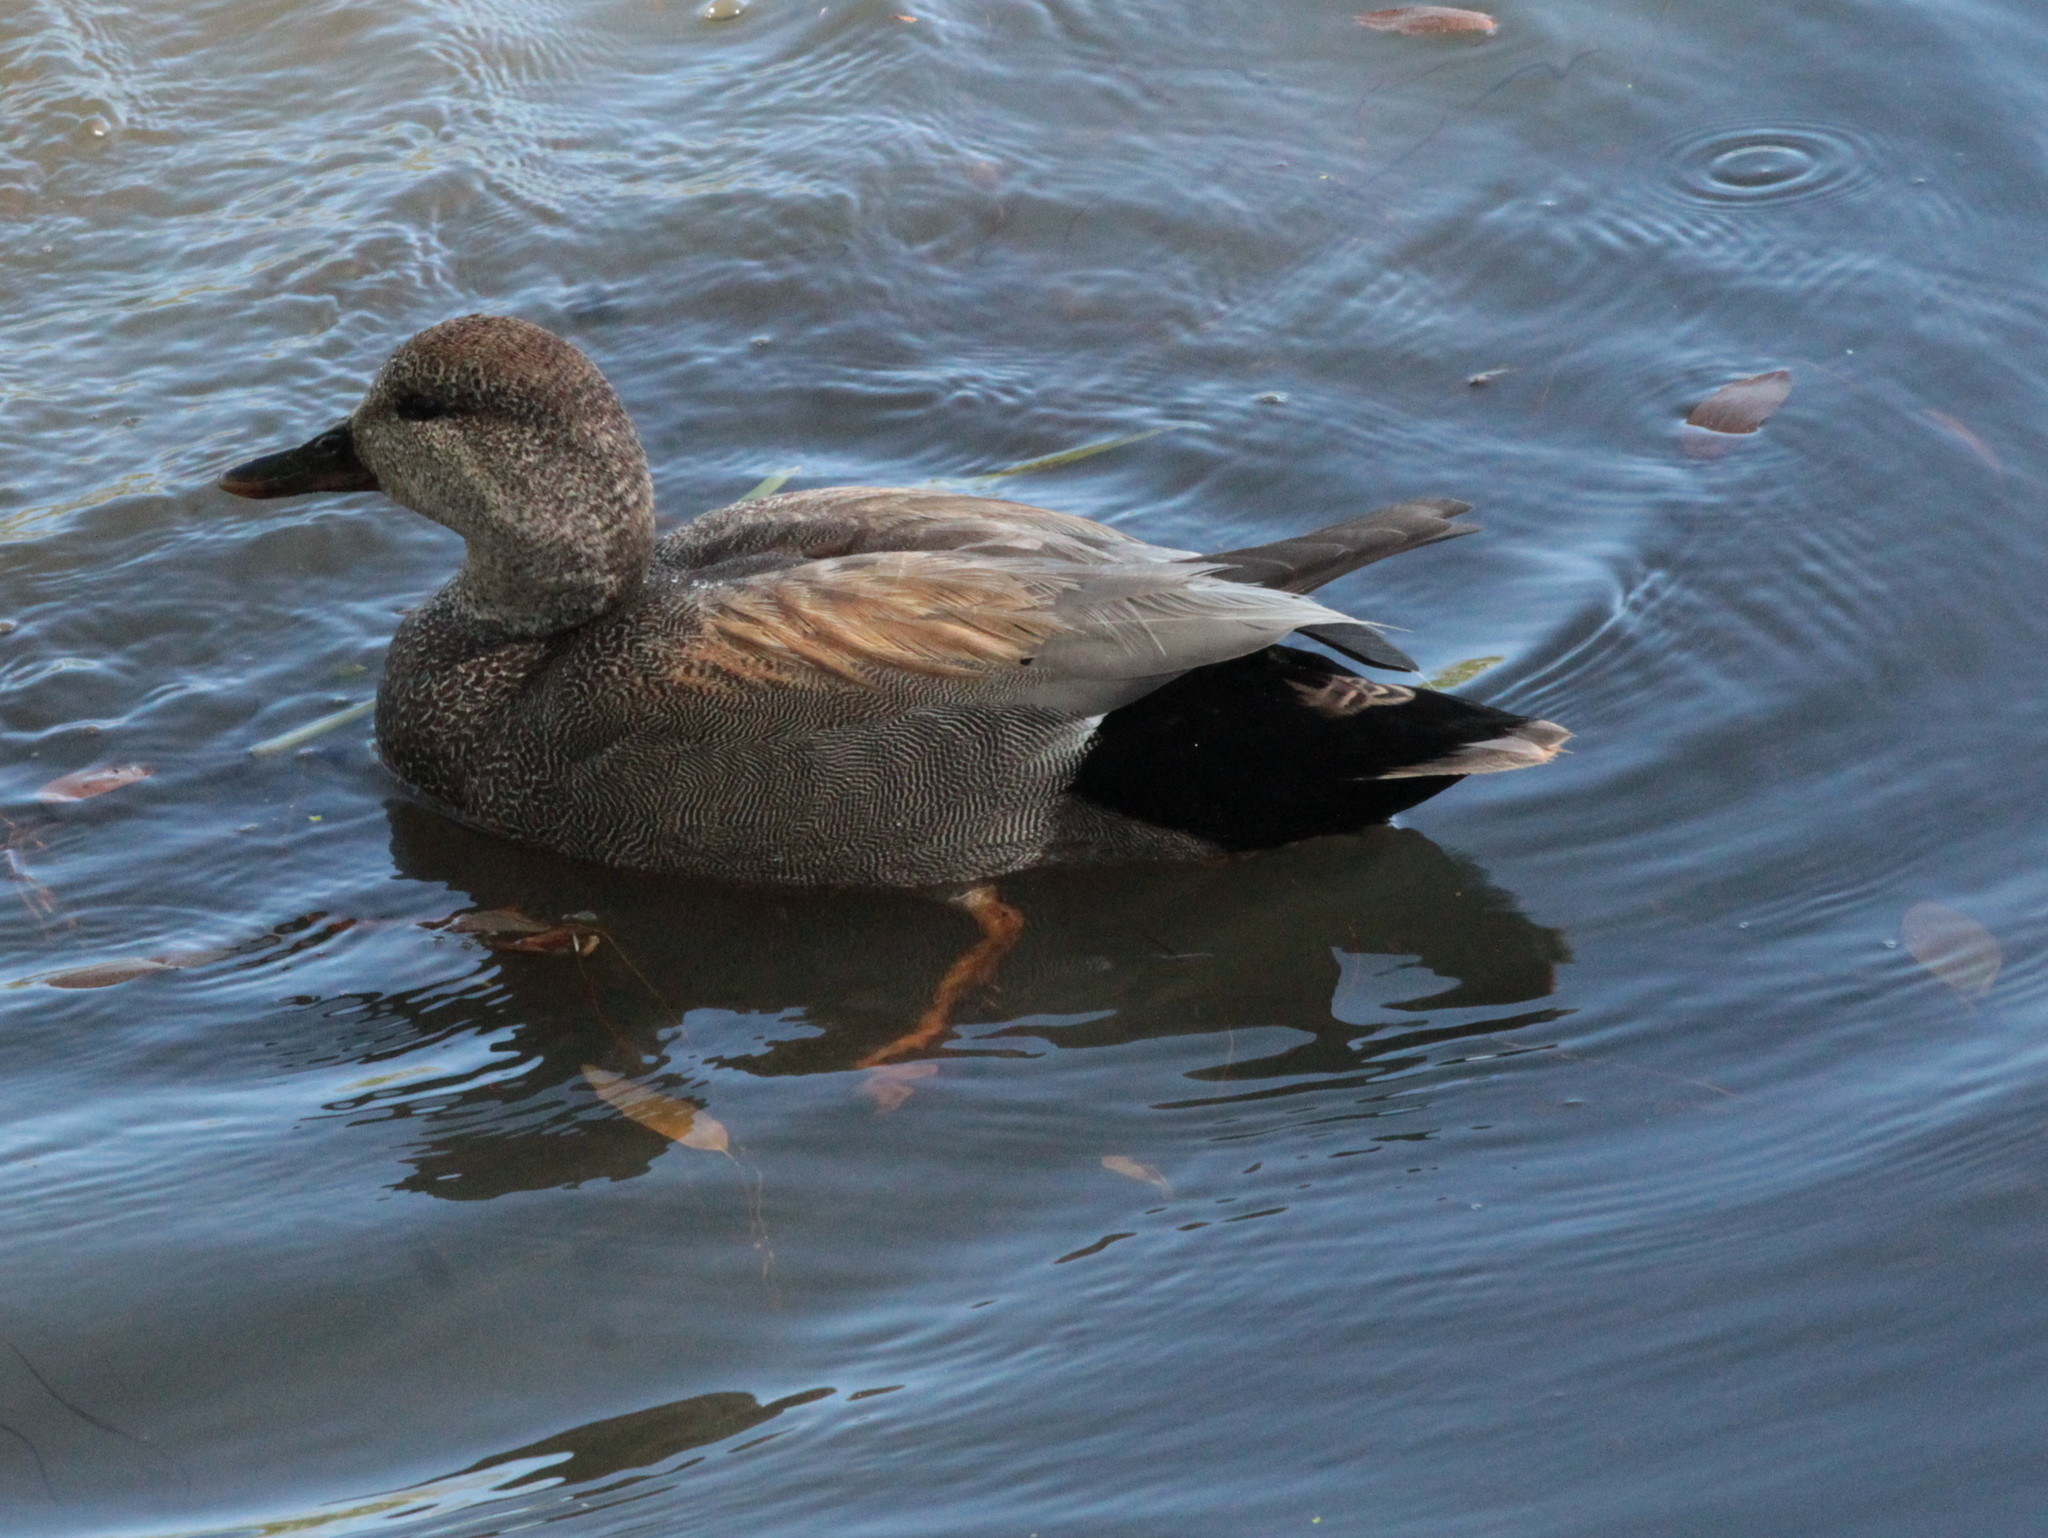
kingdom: Animalia
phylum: Chordata
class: Aves
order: Anseriformes
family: Anatidae
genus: Mareca
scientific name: Mareca strepera
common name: Gadwall
